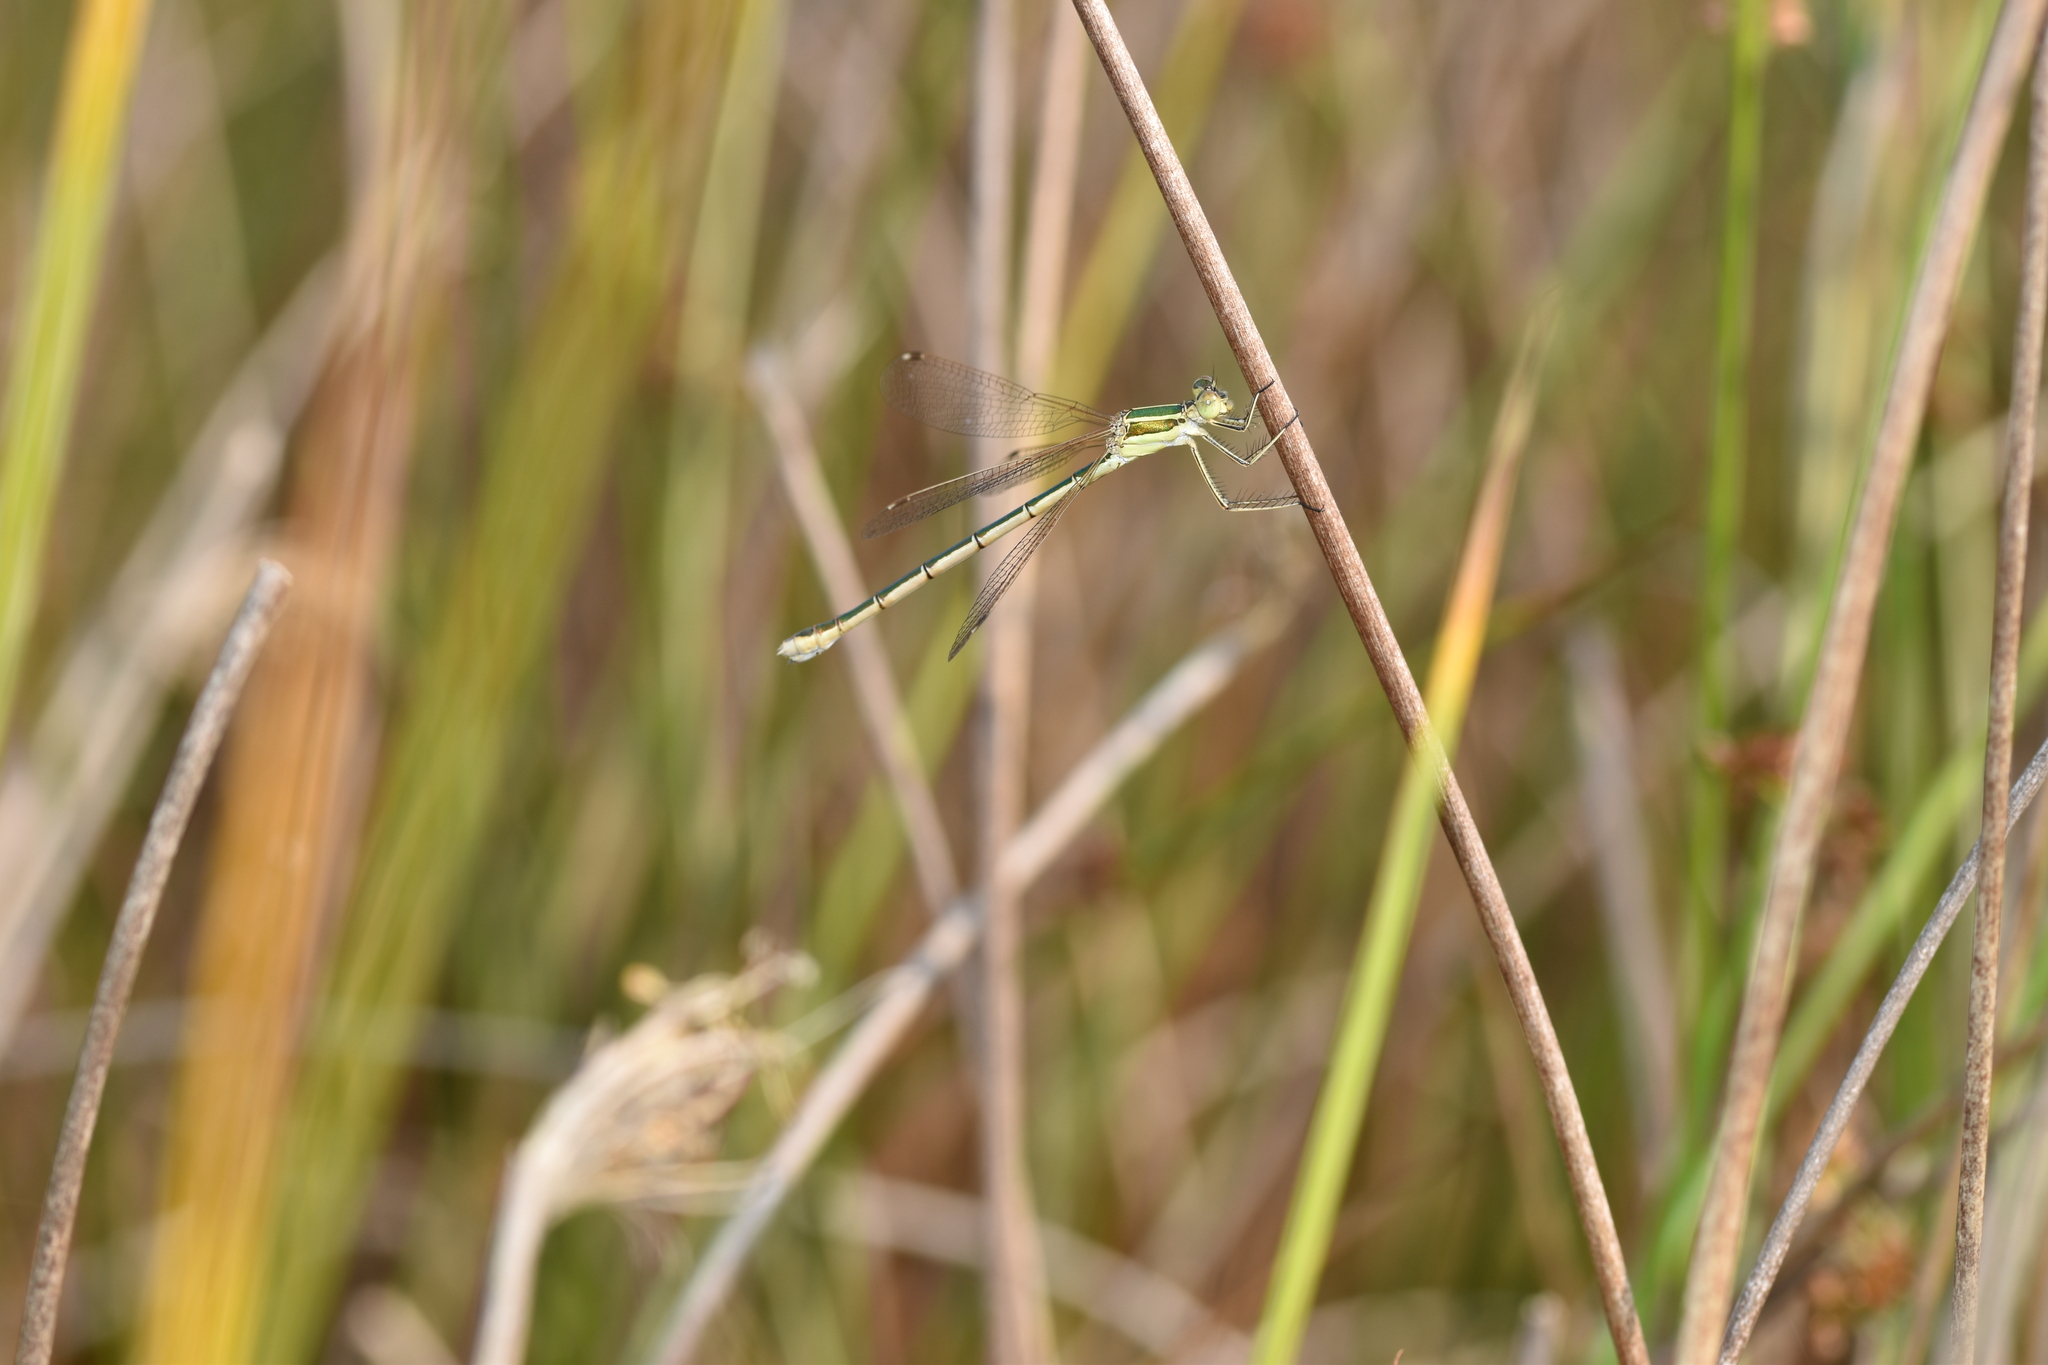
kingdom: Animalia
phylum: Arthropoda
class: Insecta
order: Odonata
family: Lestidae
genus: Lestes
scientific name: Lestes barbarus
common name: Migrant spreadwing
